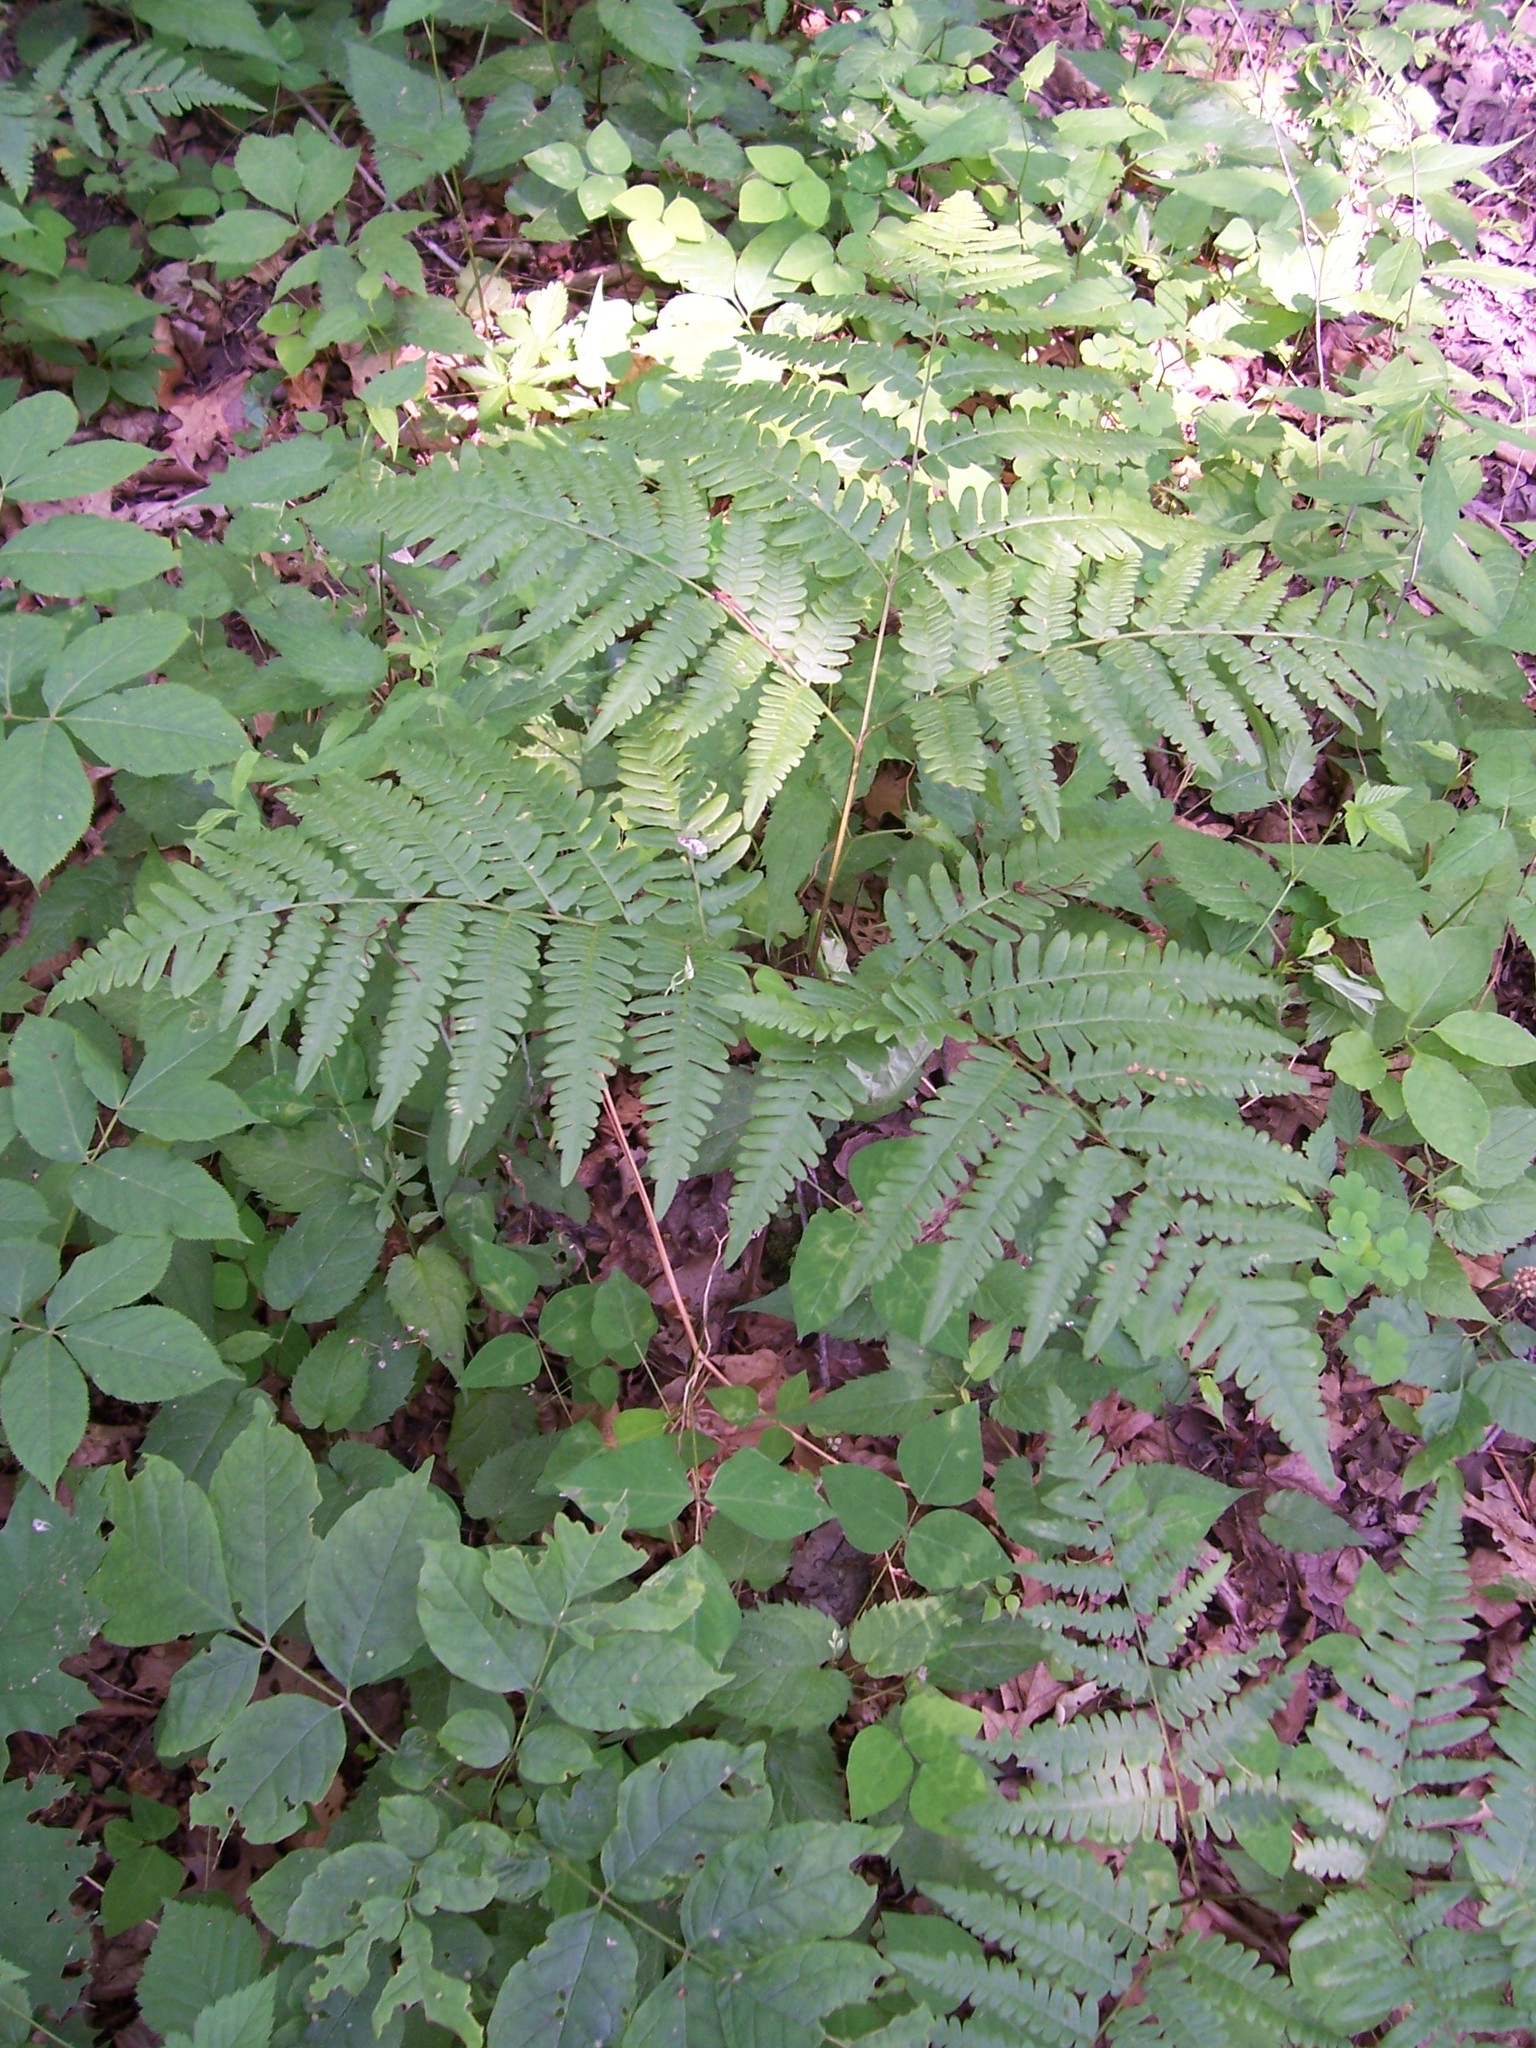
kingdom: Plantae
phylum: Tracheophyta
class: Polypodiopsida
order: Polypodiales
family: Dennstaedtiaceae
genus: Pteridium
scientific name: Pteridium aquilinum
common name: Bracken
